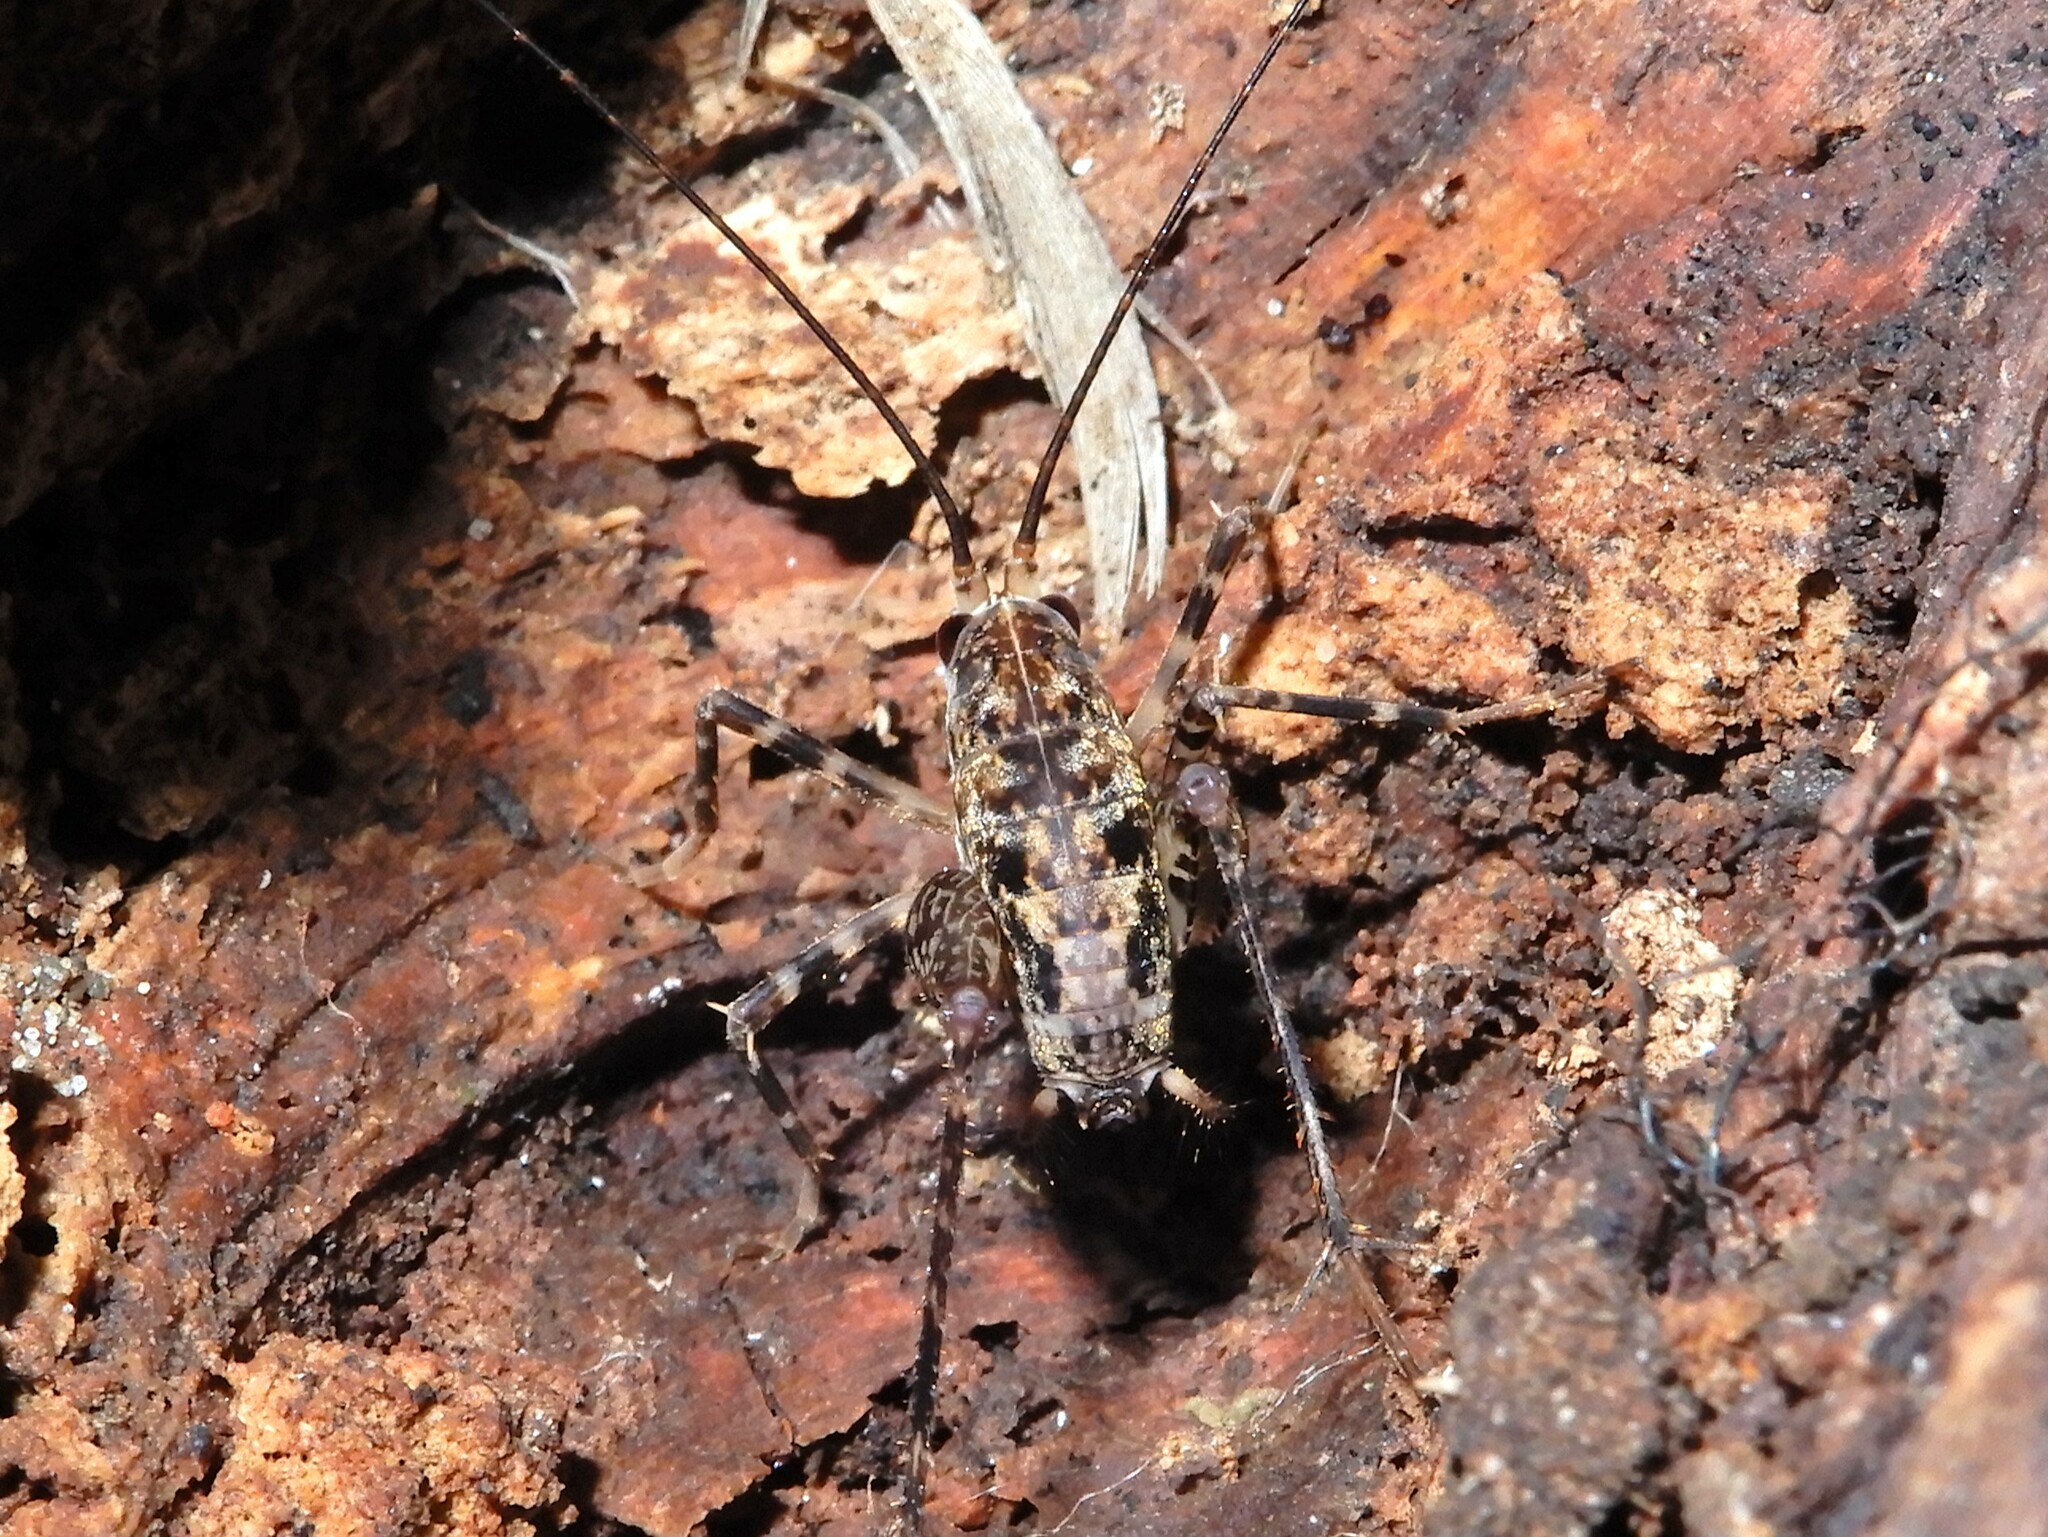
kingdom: Animalia
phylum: Arthropoda
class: Insecta
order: Orthoptera
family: Rhaphidophoridae
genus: Pleioplectron
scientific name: Pleioplectron hudsoni
